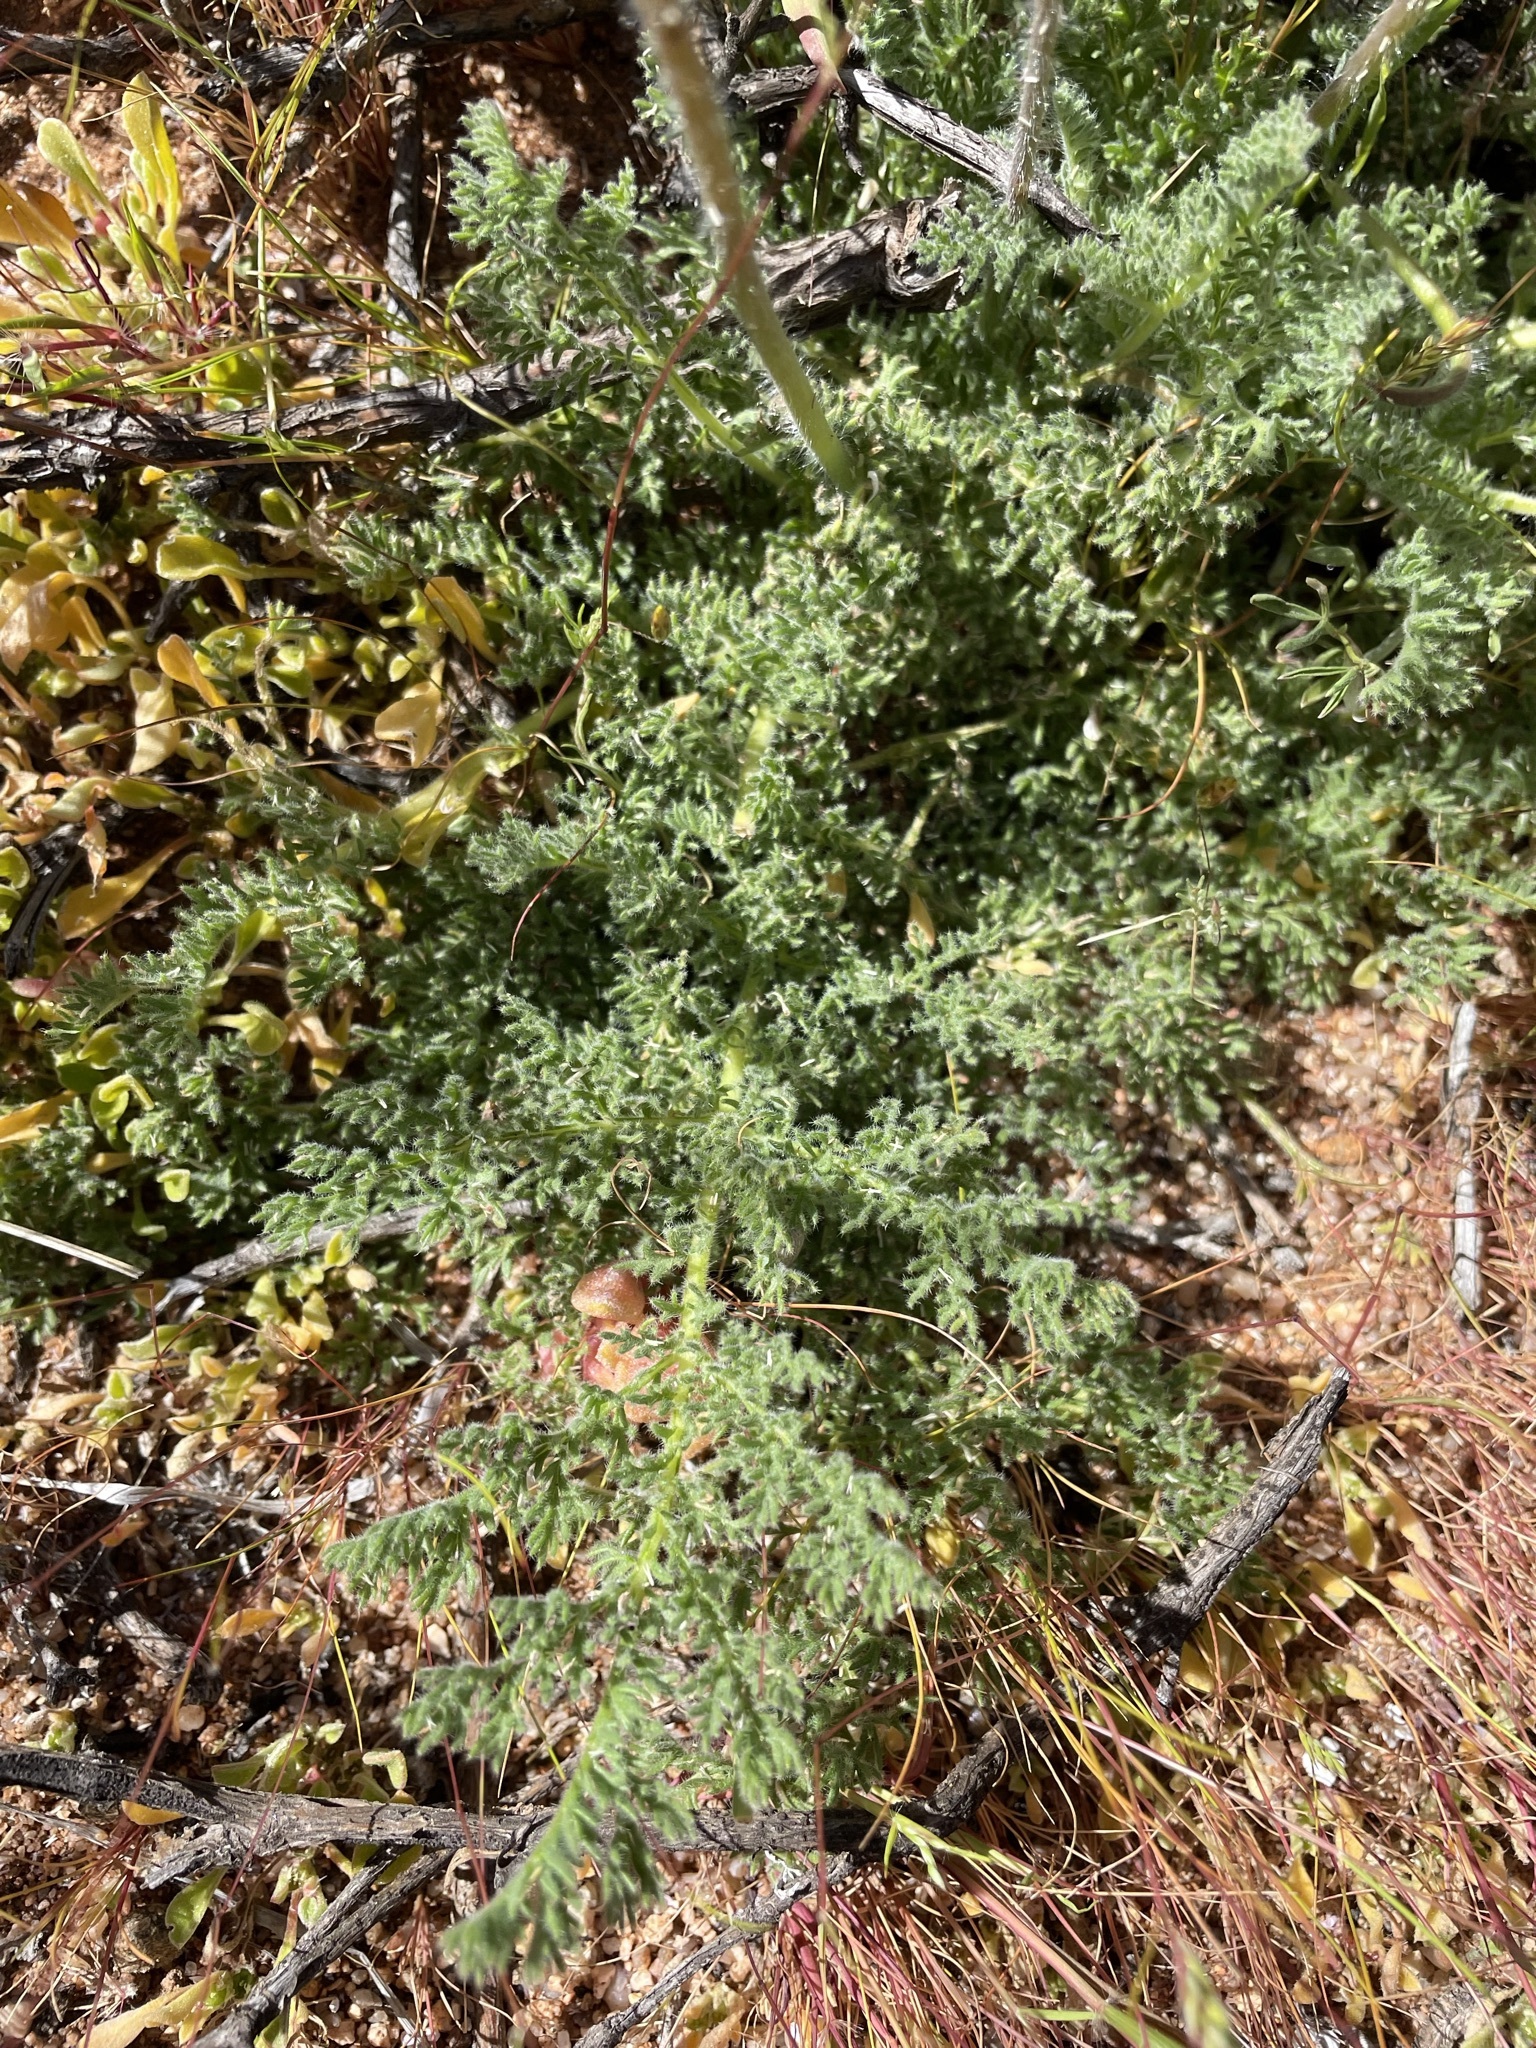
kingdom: Plantae
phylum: Tracheophyta
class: Magnoliopsida
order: Geraniales
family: Geraniaceae
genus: Pelargonium
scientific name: Pelargonium triste
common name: Night-scent pelargonium
